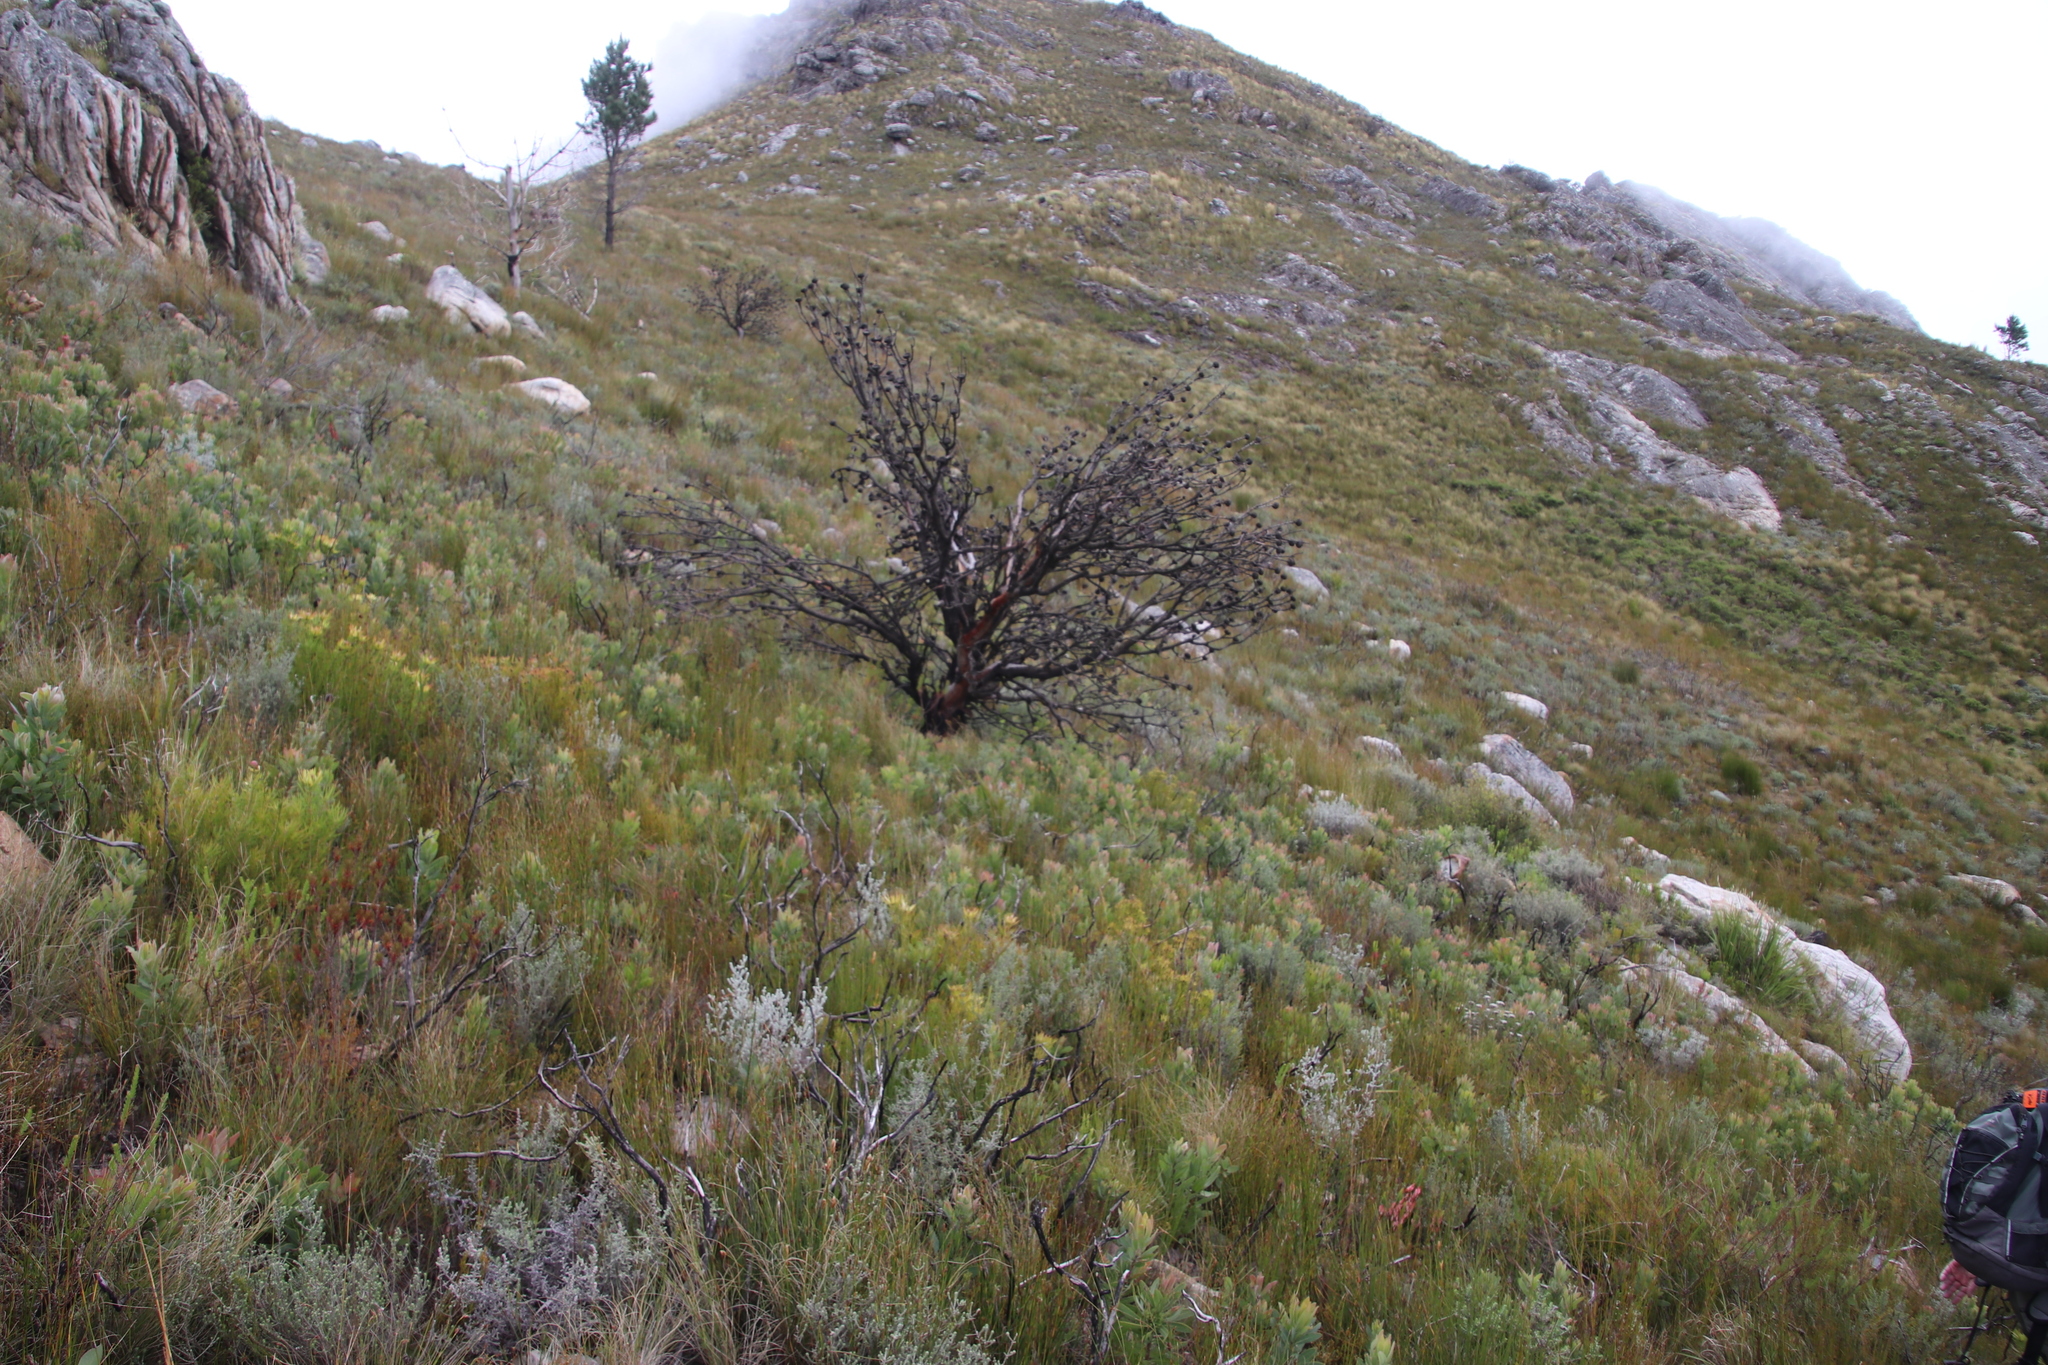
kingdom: Plantae
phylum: Tracheophyta
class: Magnoliopsida
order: Proteales
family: Proteaceae
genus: Protea
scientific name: Protea laurifolia
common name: Grey-leaf sugarbsh
